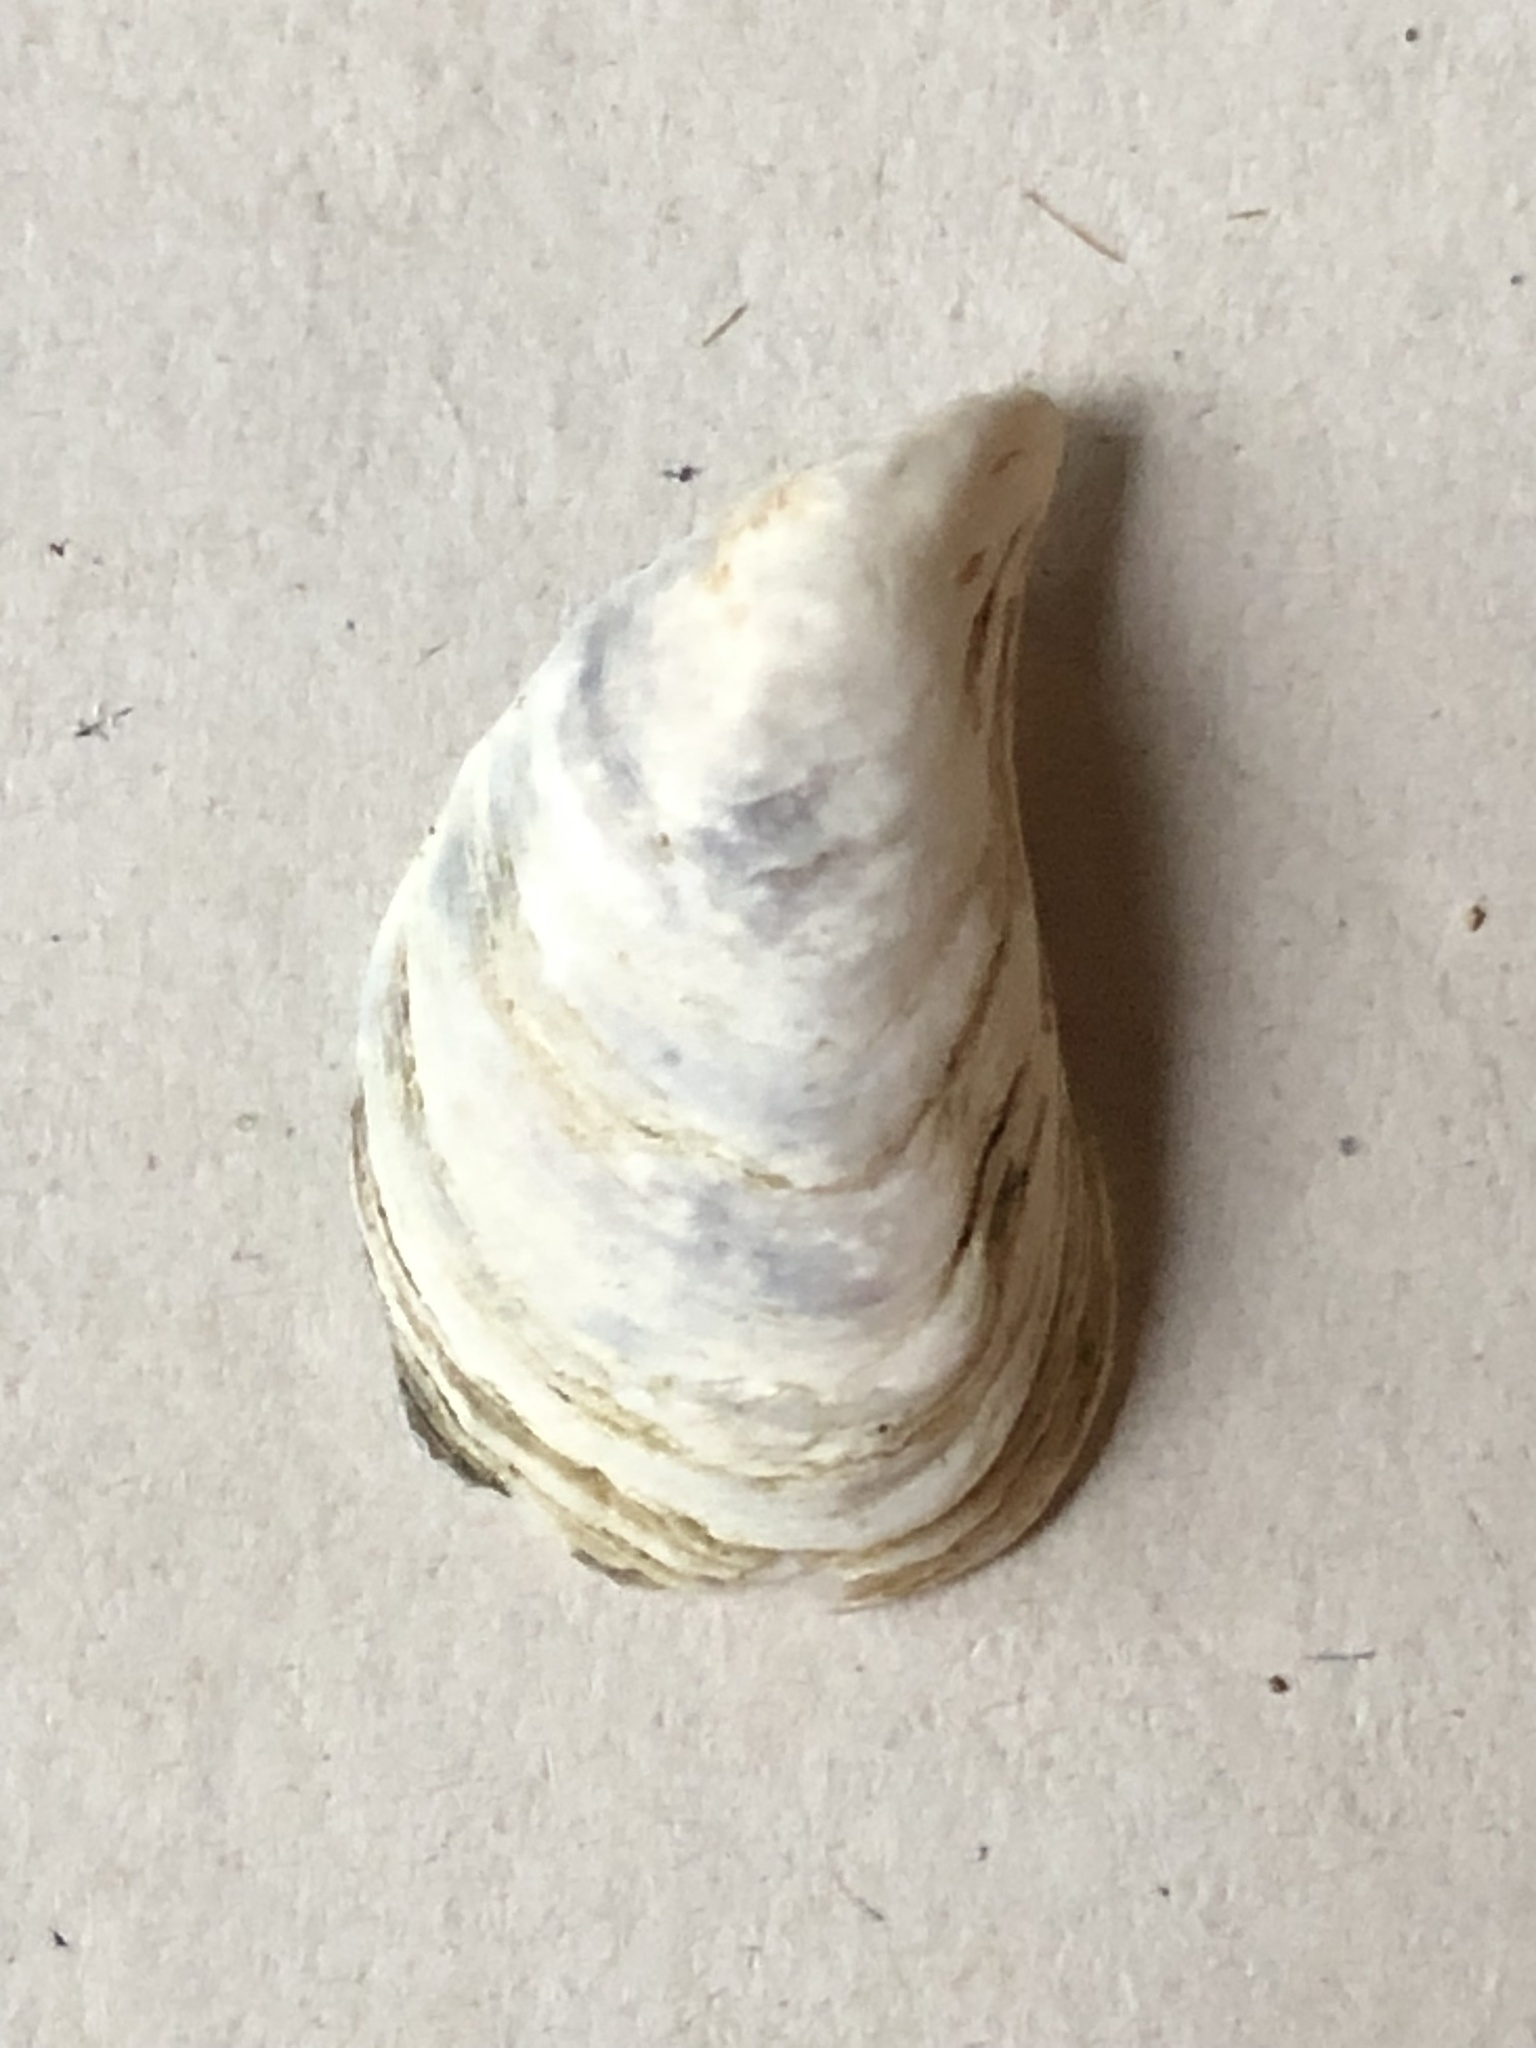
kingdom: Animalia
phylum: Mollusca
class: Bivalvia
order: Myida
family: Dreissenidae
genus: Dreissena
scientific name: Dreissena bugensis
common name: Quagga mussel
